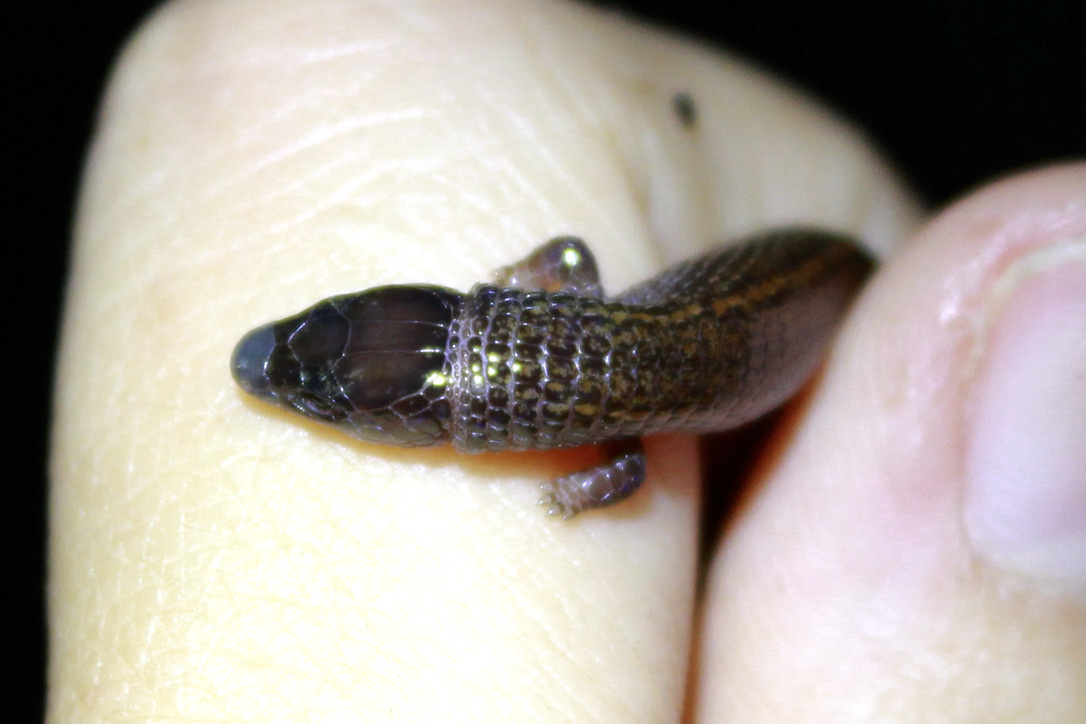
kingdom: Animalia
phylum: Chordata
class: Squamata
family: Gymnophthalmidae
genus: Bachia
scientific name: Bachia trinitatis
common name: Trinidad bachia
